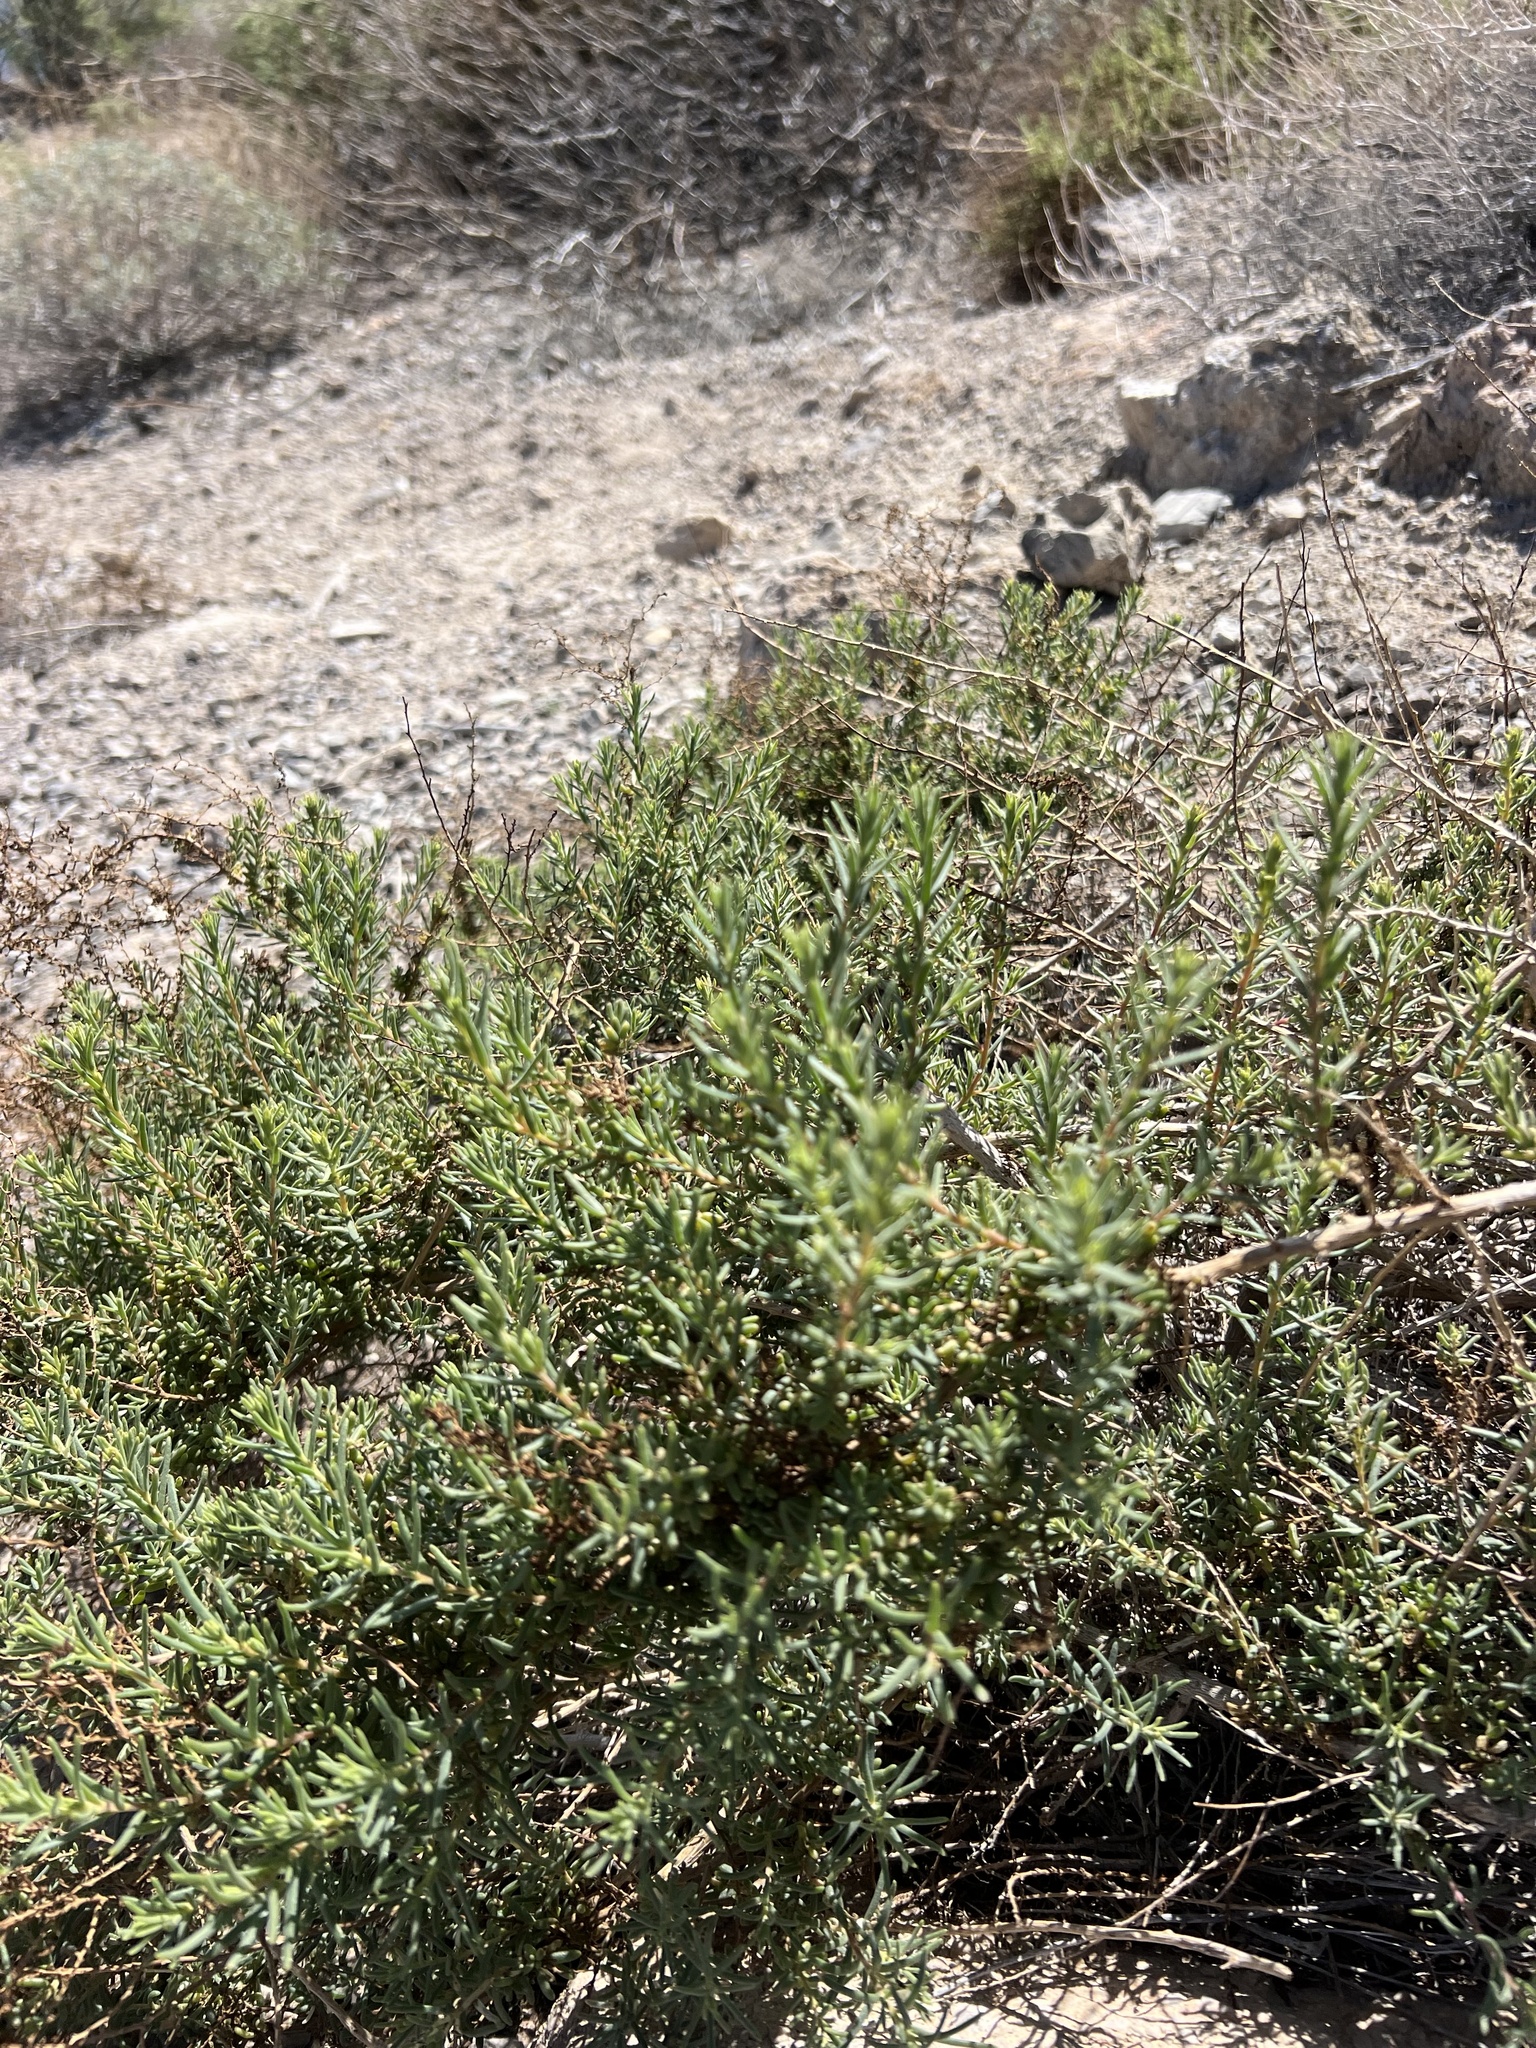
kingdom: Plantae
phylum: Tracheophyta
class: Magnoliopsida
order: Asterales
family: Asteraceae
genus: Peucephyllum
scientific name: Peucephyllum schottii
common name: Pygmy-cedar
